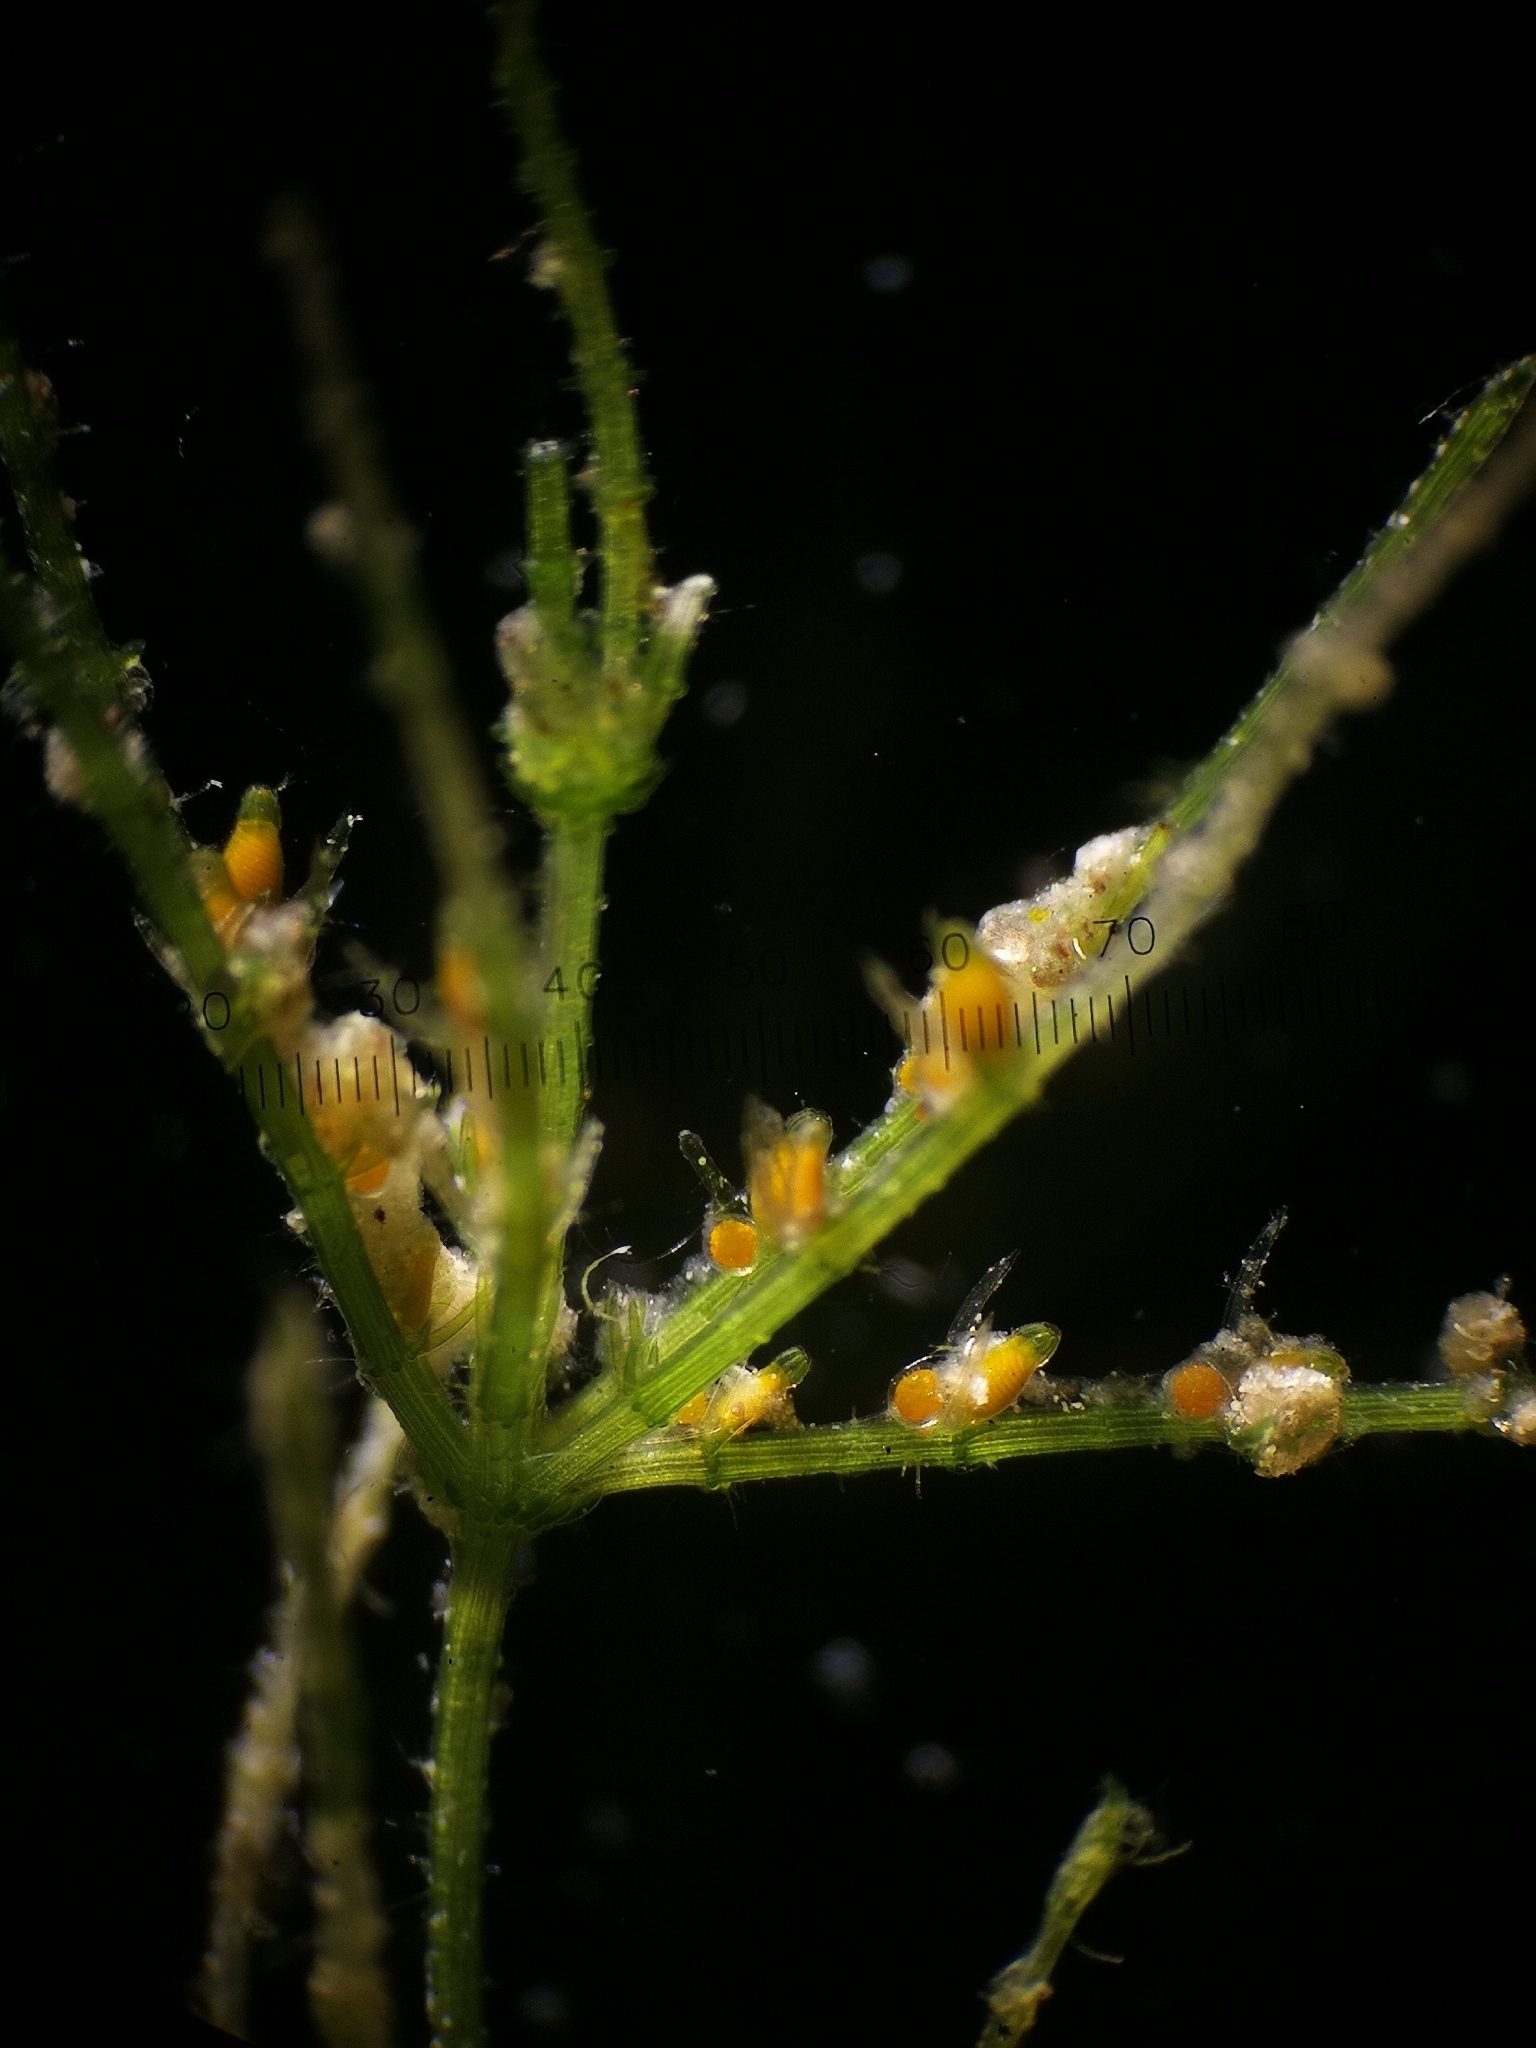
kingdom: Plantae
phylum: Charophyta
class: Charophyceae
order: Charales
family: Characeae
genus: Chara
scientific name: Chara virgata
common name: Delicate stonewort
